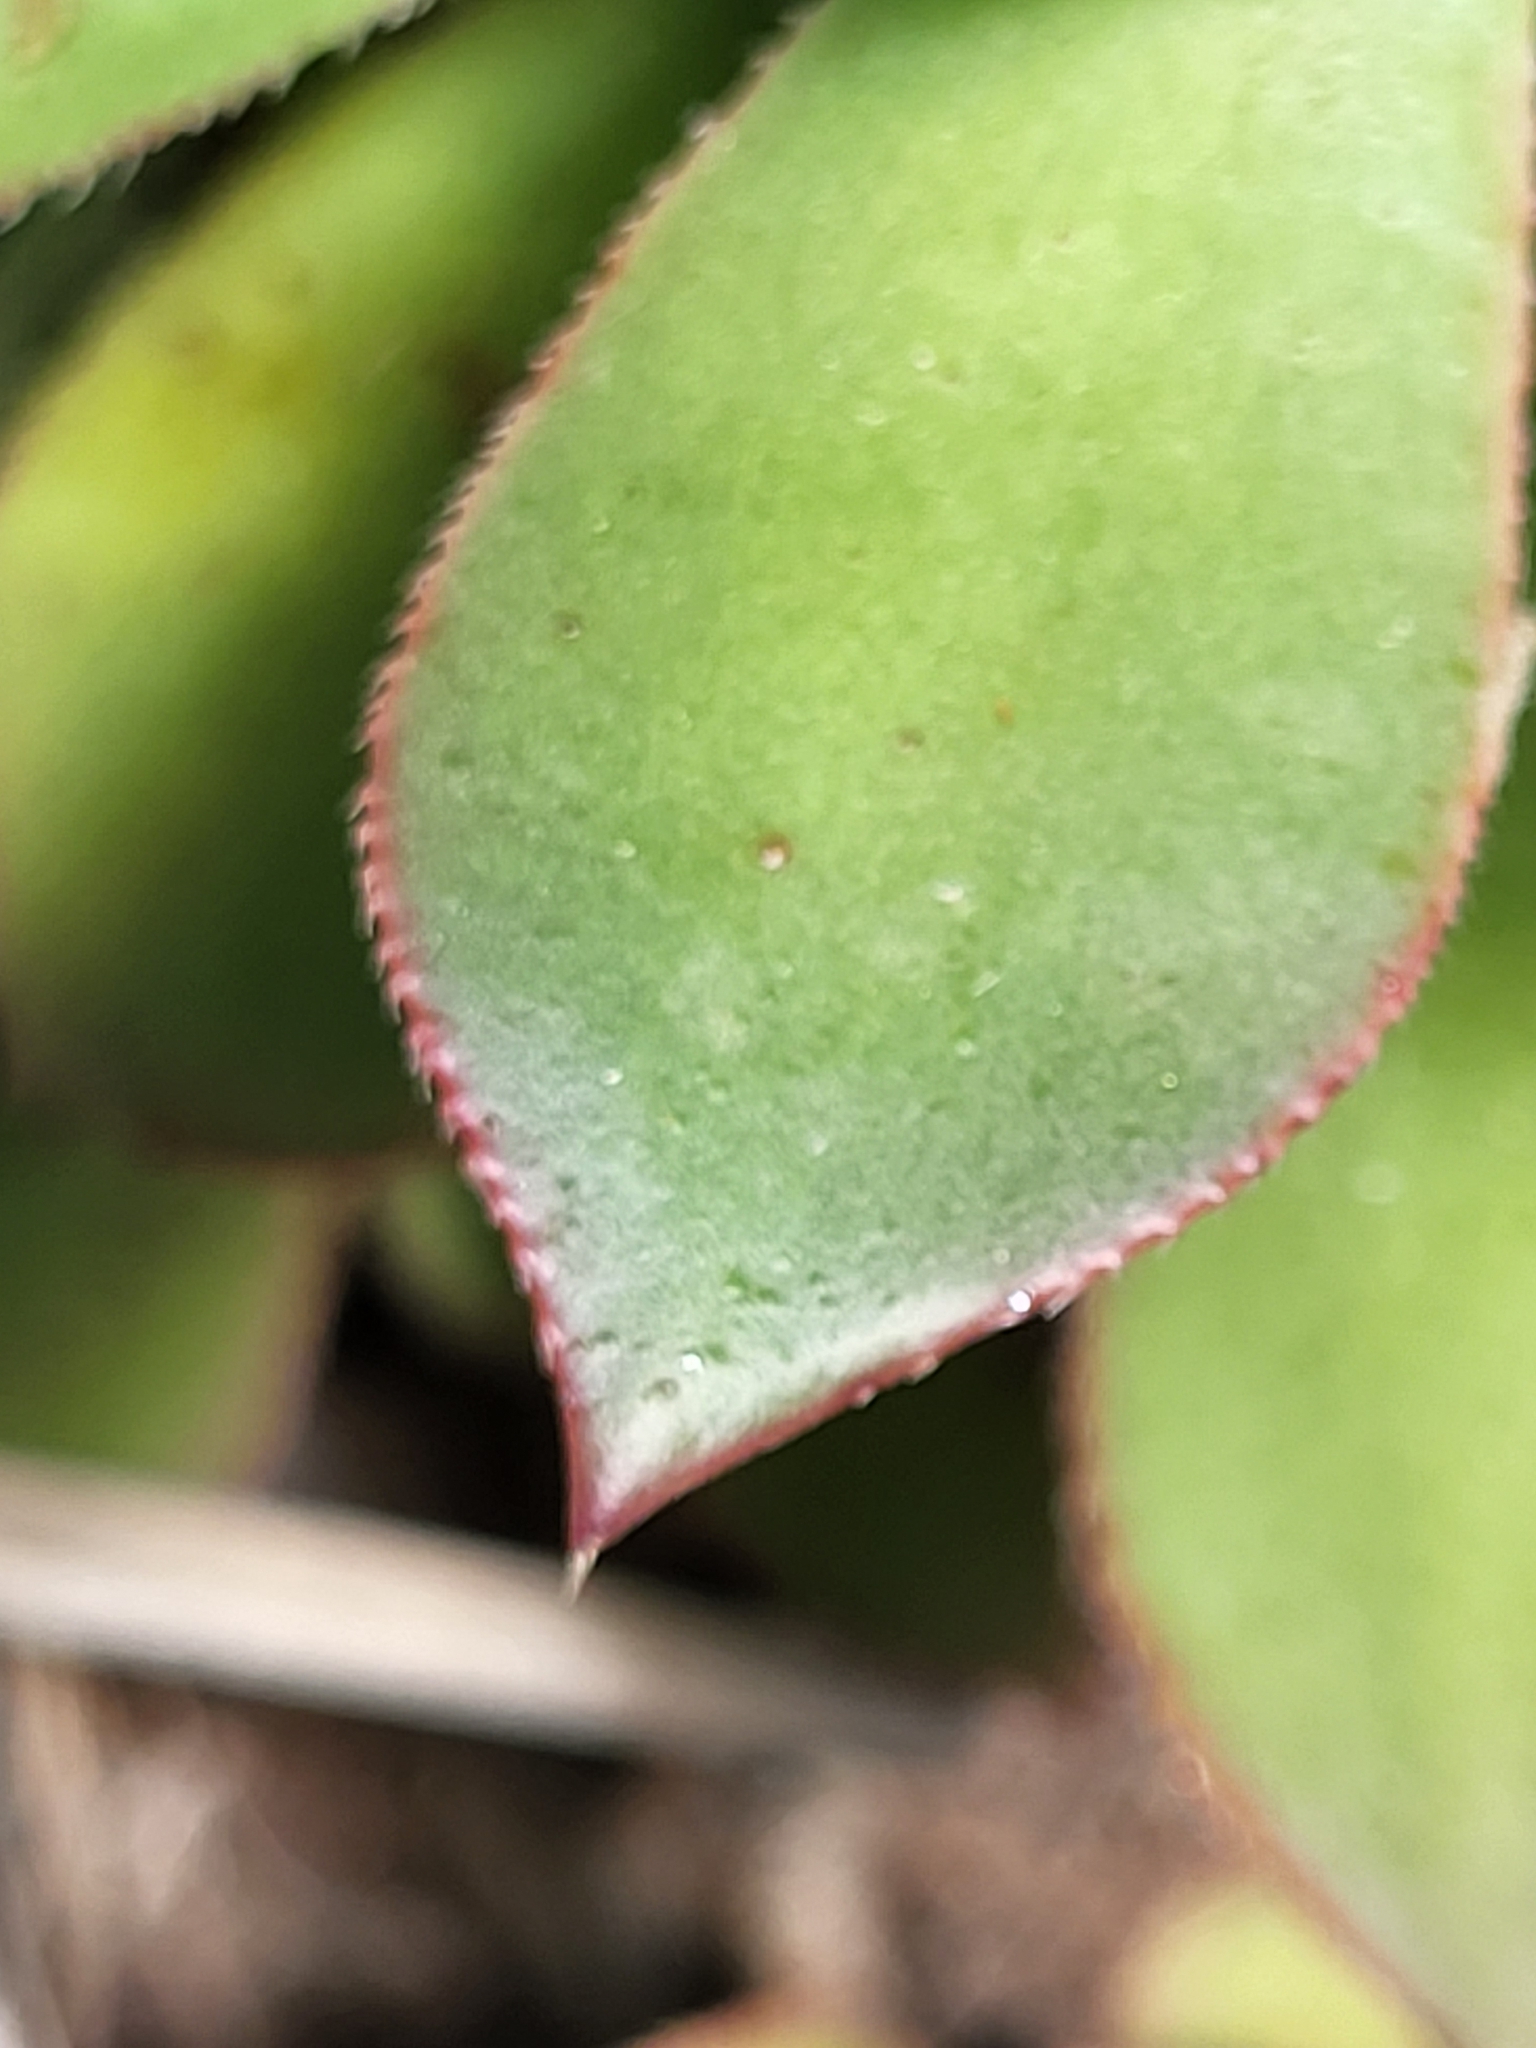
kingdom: Plantae
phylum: Tracheophyta
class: Magnoliopsida
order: Saxifragales
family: Crassulaceae
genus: Aeonium
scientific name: Aeonium decorum
